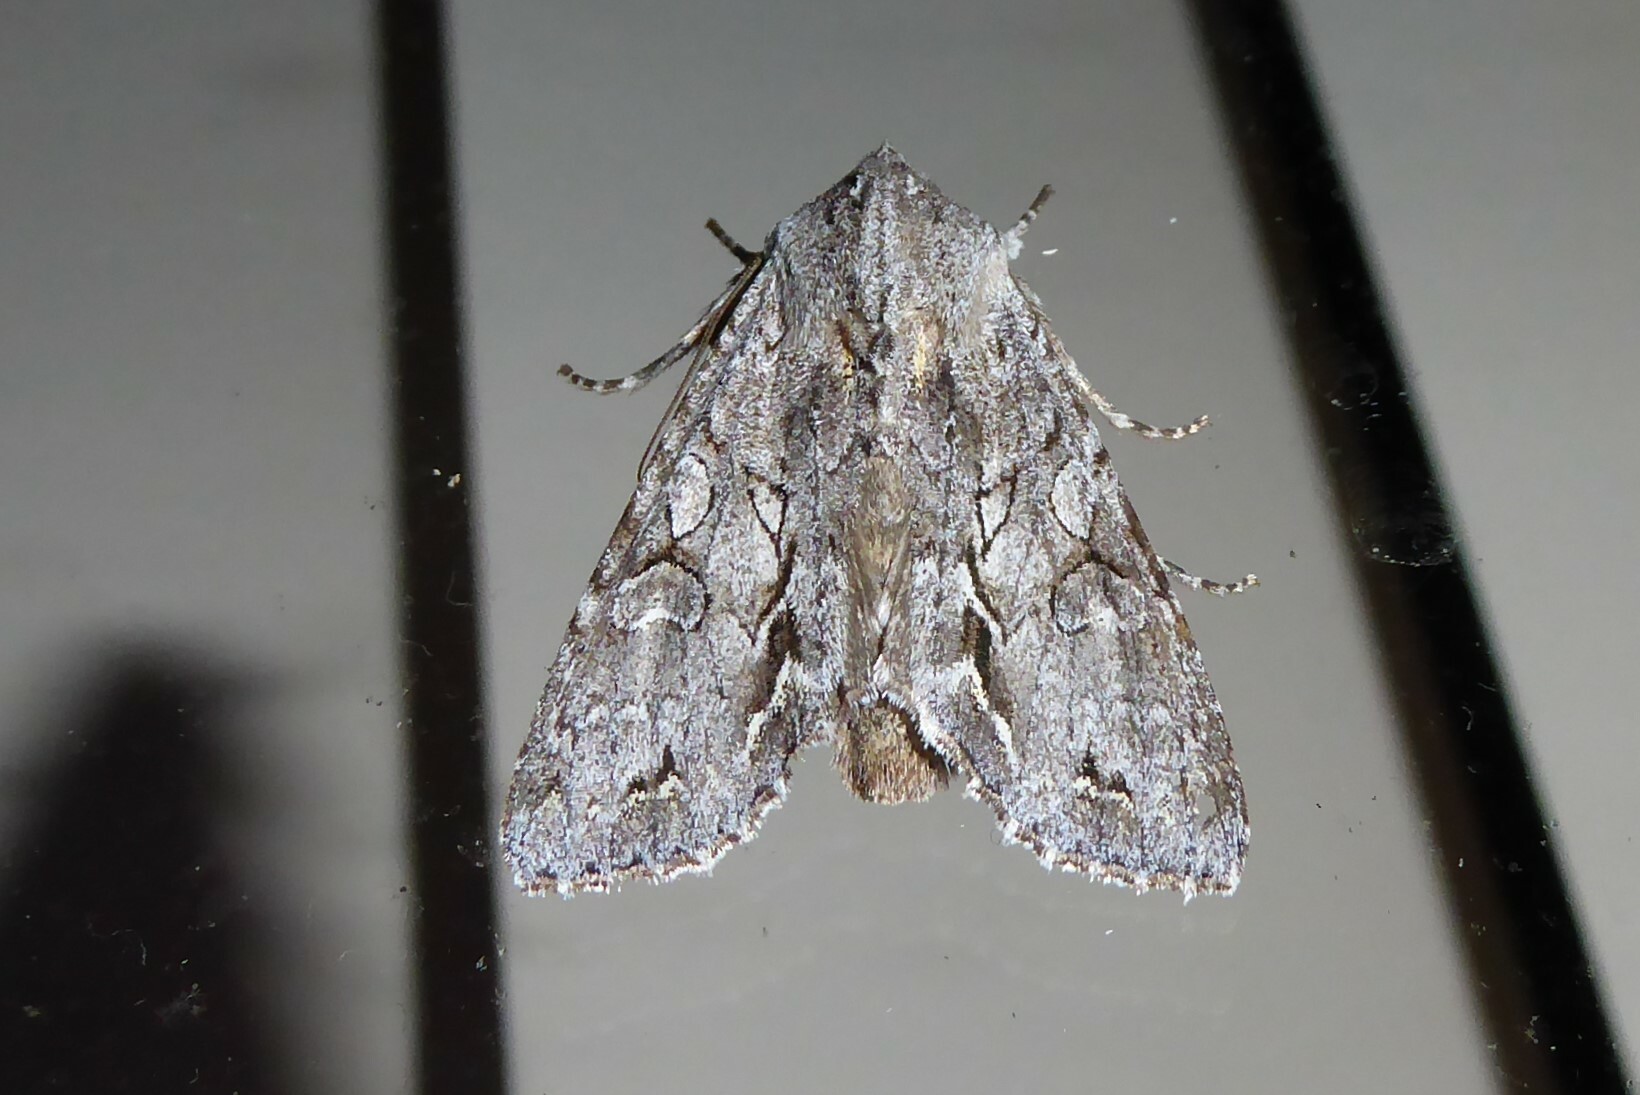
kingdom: Animalia
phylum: Arthropoda
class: Insecta
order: Lepidoptera
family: Noctuidae
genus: Ichneutica
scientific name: Ichneutica
